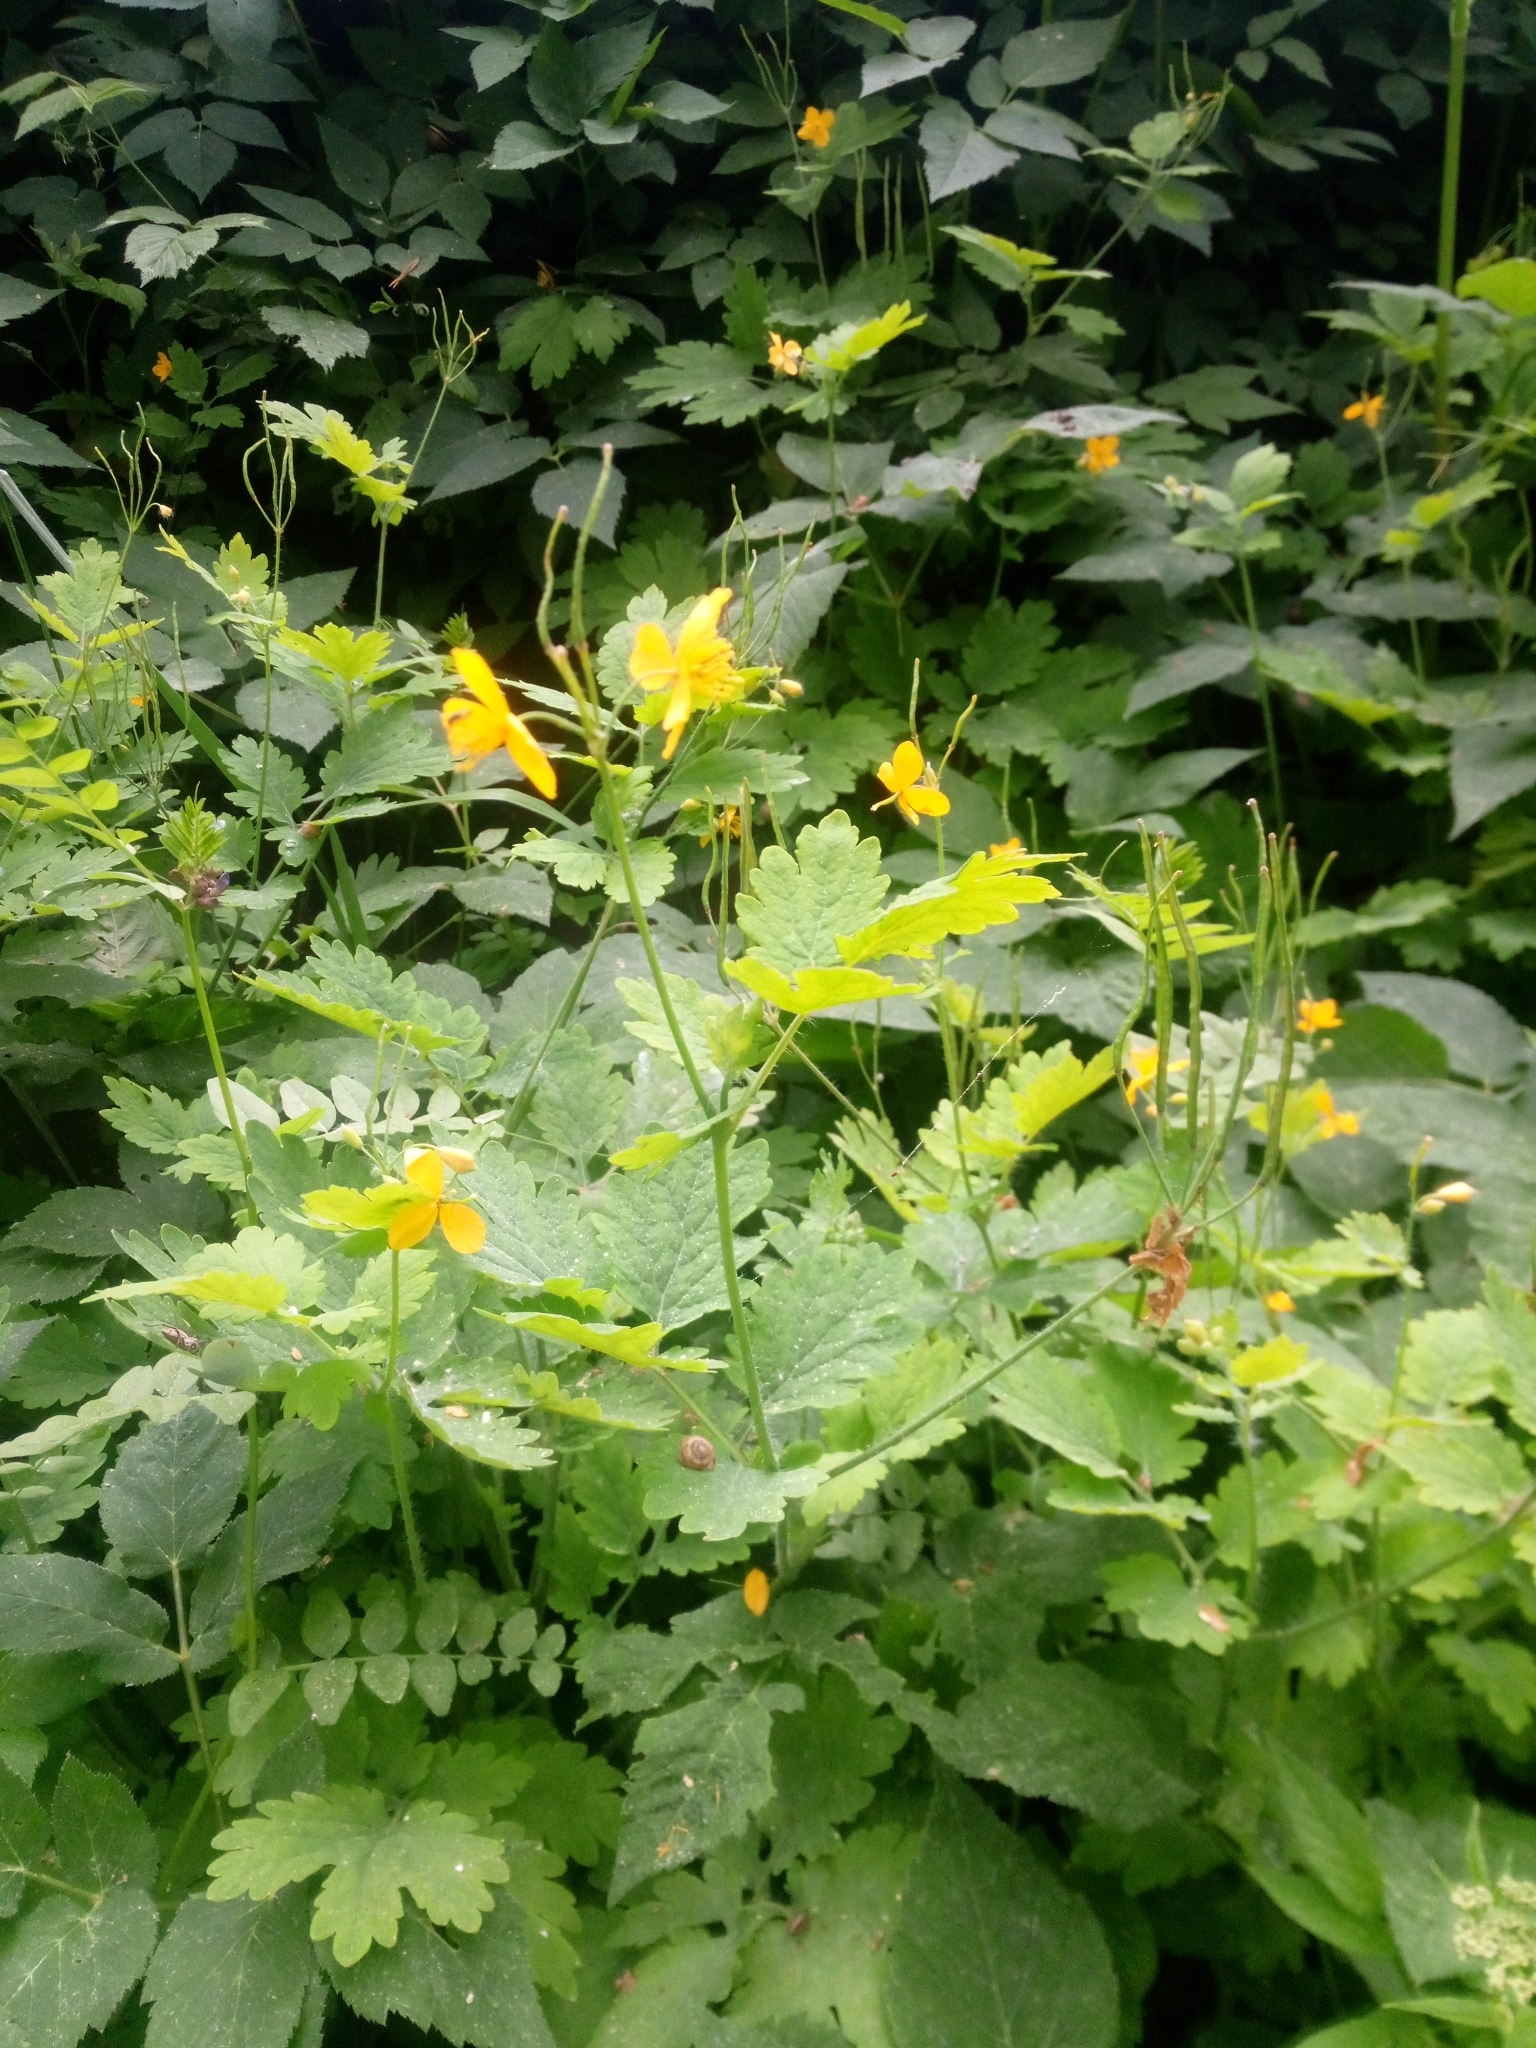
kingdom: Plantae
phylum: Tracheophyta
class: Magnoliopsida
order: Ranunculales
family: Papaveraceae
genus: Chelidonium
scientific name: Chelidonium majus
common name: Greater celandine
